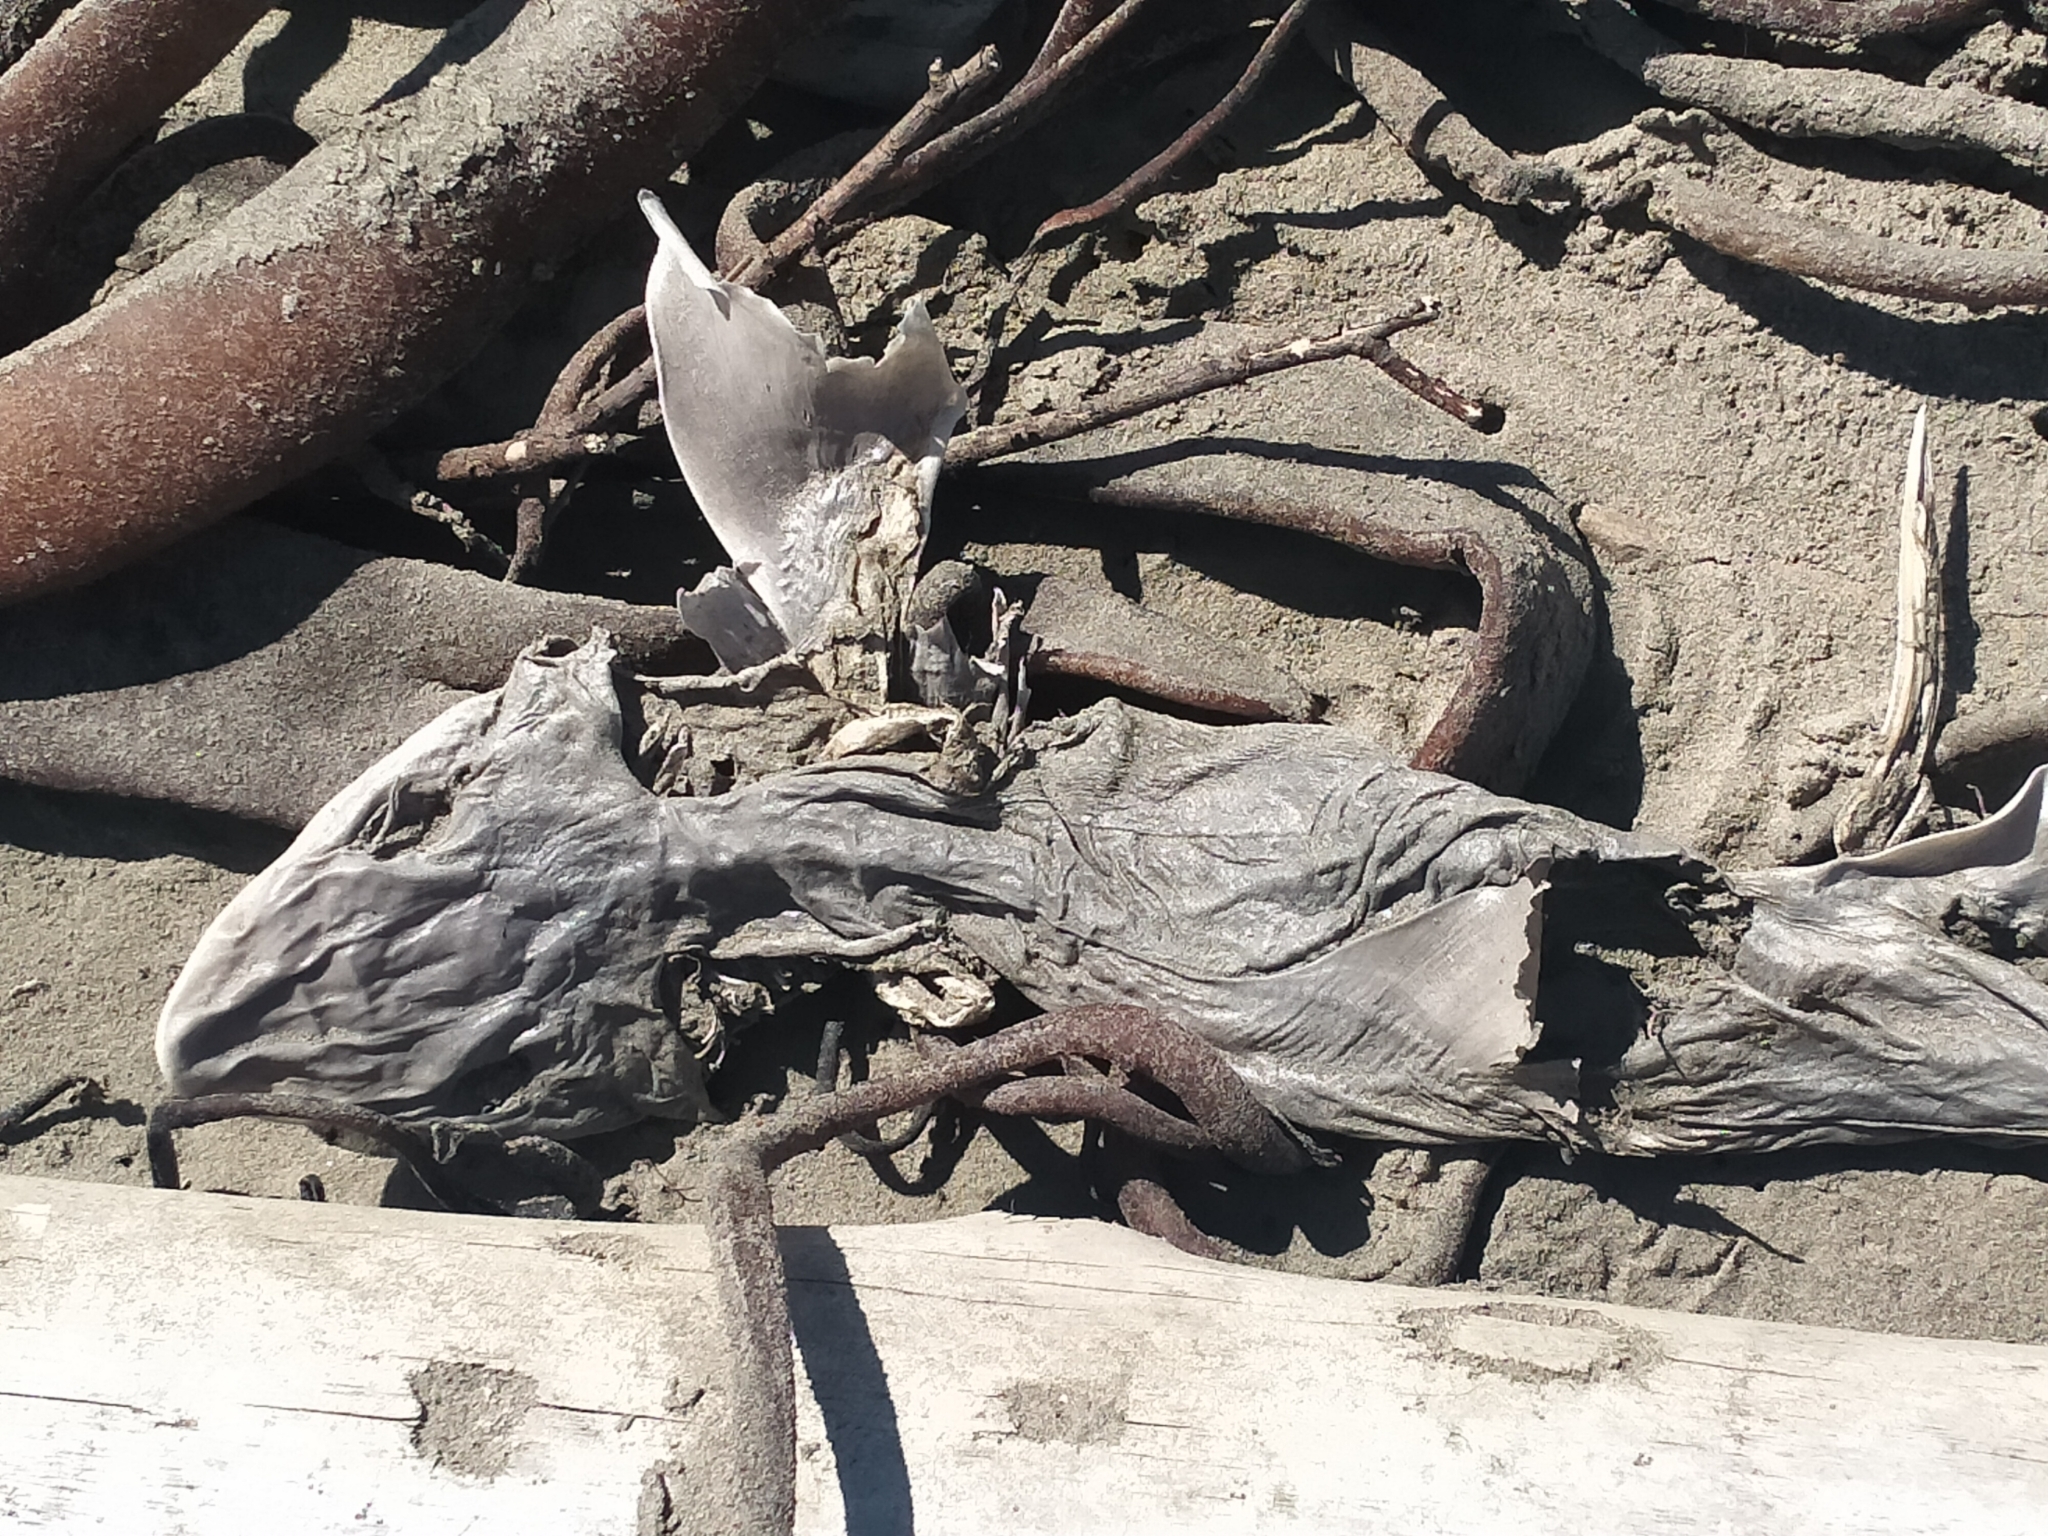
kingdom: Animalia
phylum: Chordata
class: Elasmobranchii
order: Carcharhiniformes
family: Triakidae
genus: Mustelus
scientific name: Mustelus lenticulatus
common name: Gummy shark
